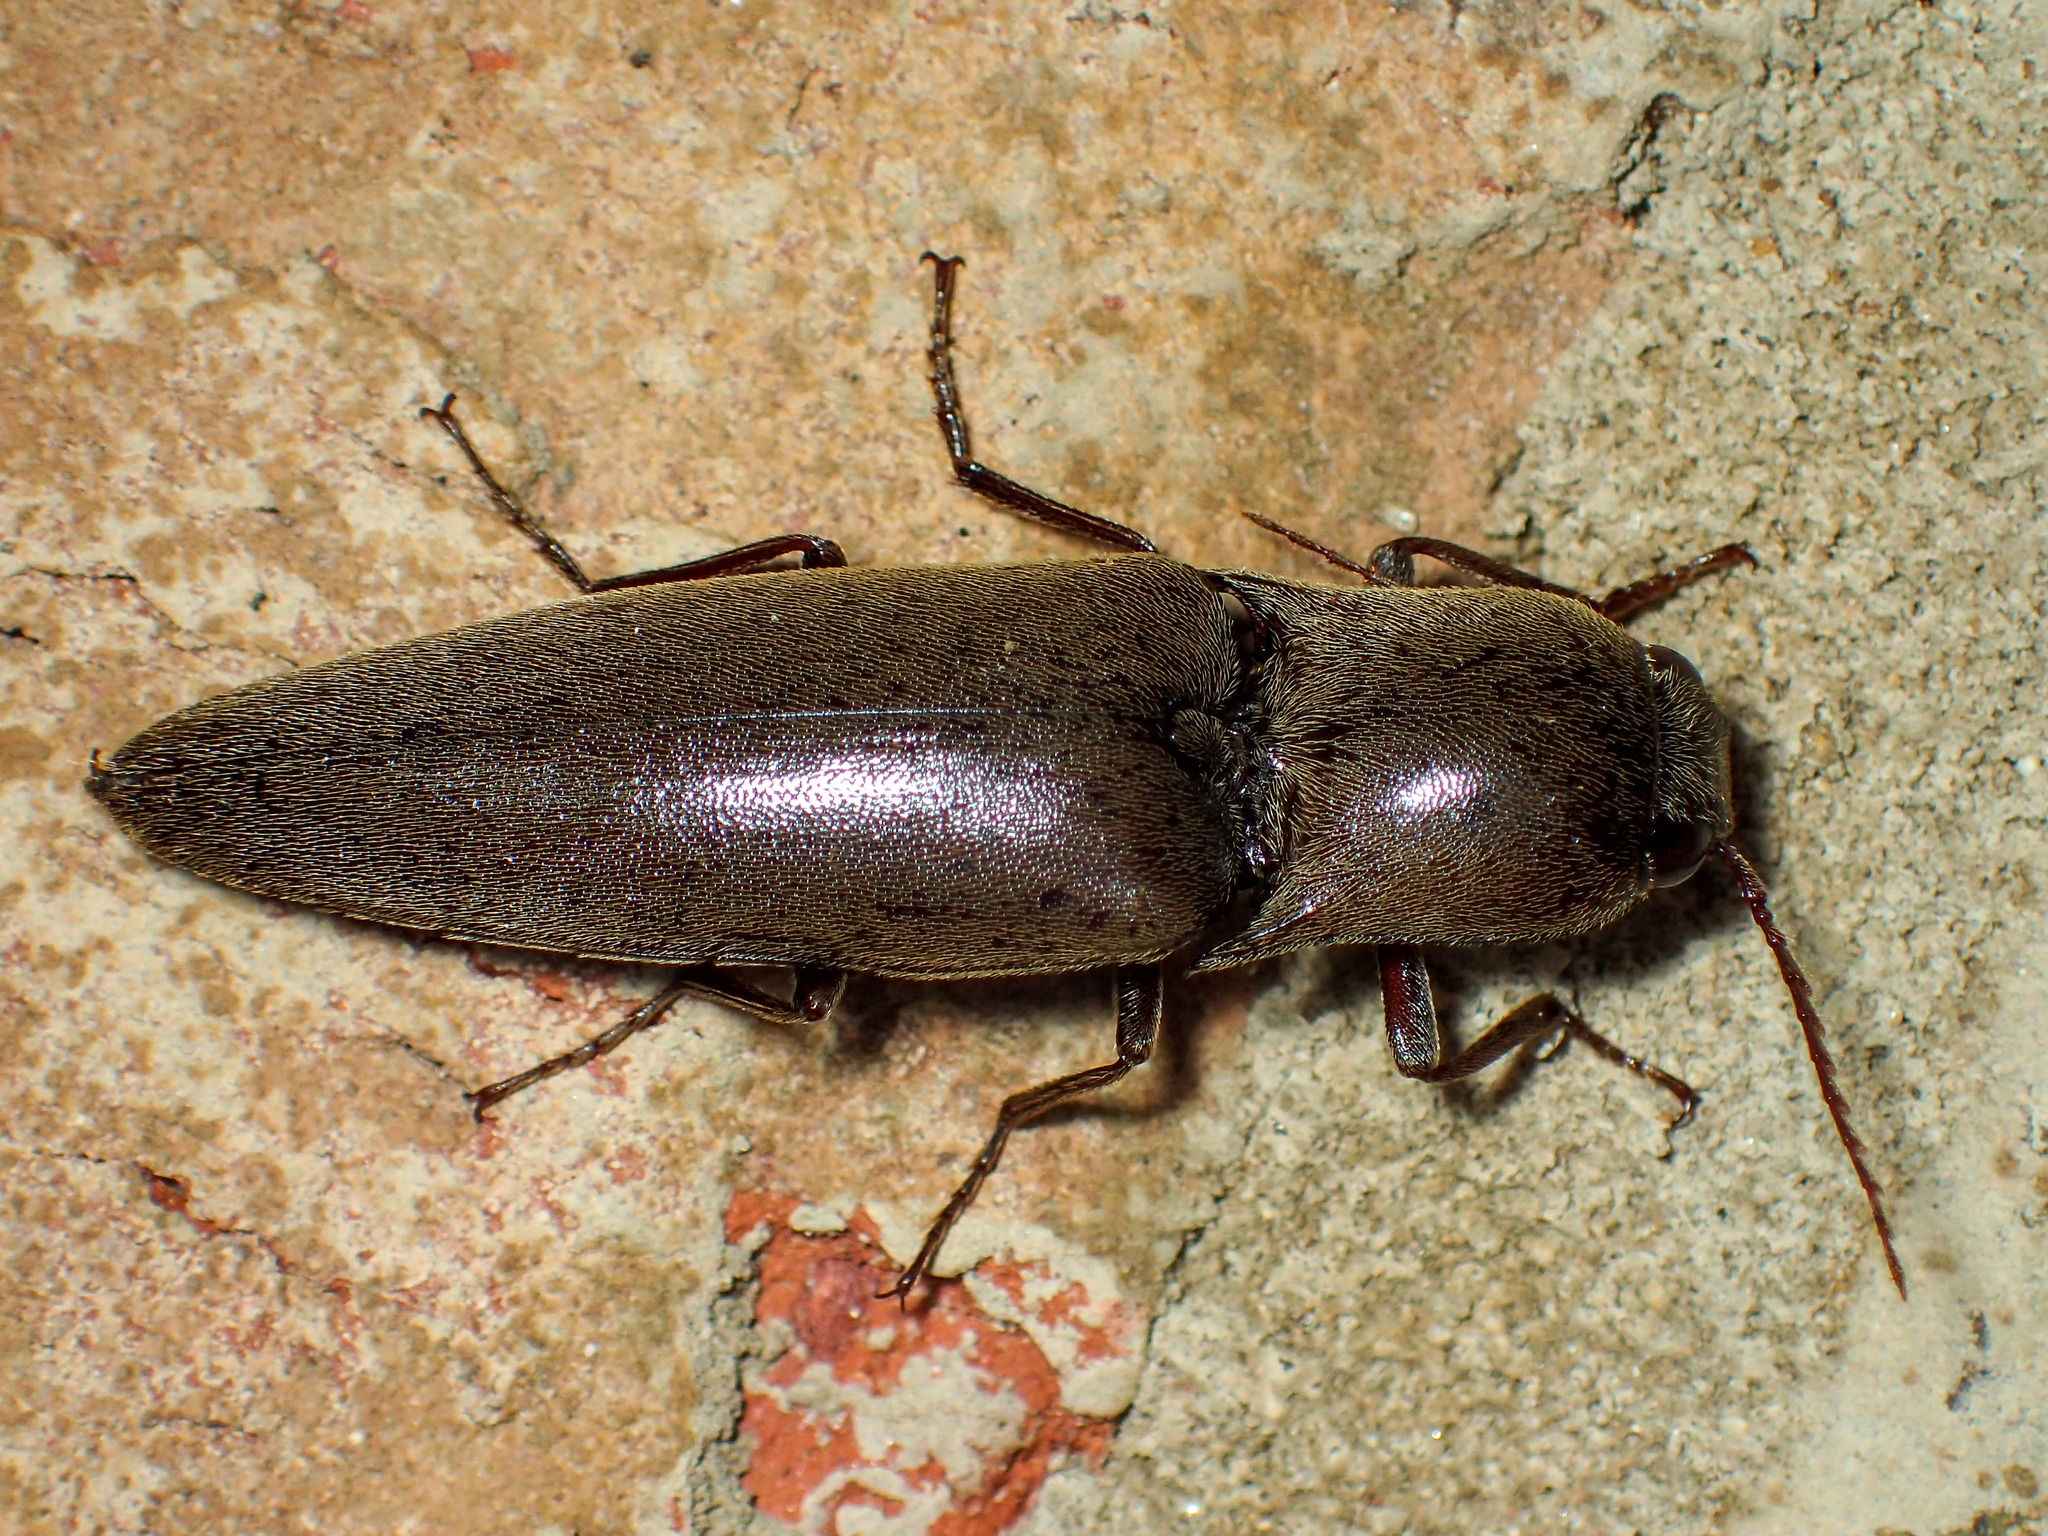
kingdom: Animalia
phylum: Arthropoda
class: Insecta
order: Coleoptera
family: Elateridae
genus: Orthostethus
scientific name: Orthostethus infuscatus
